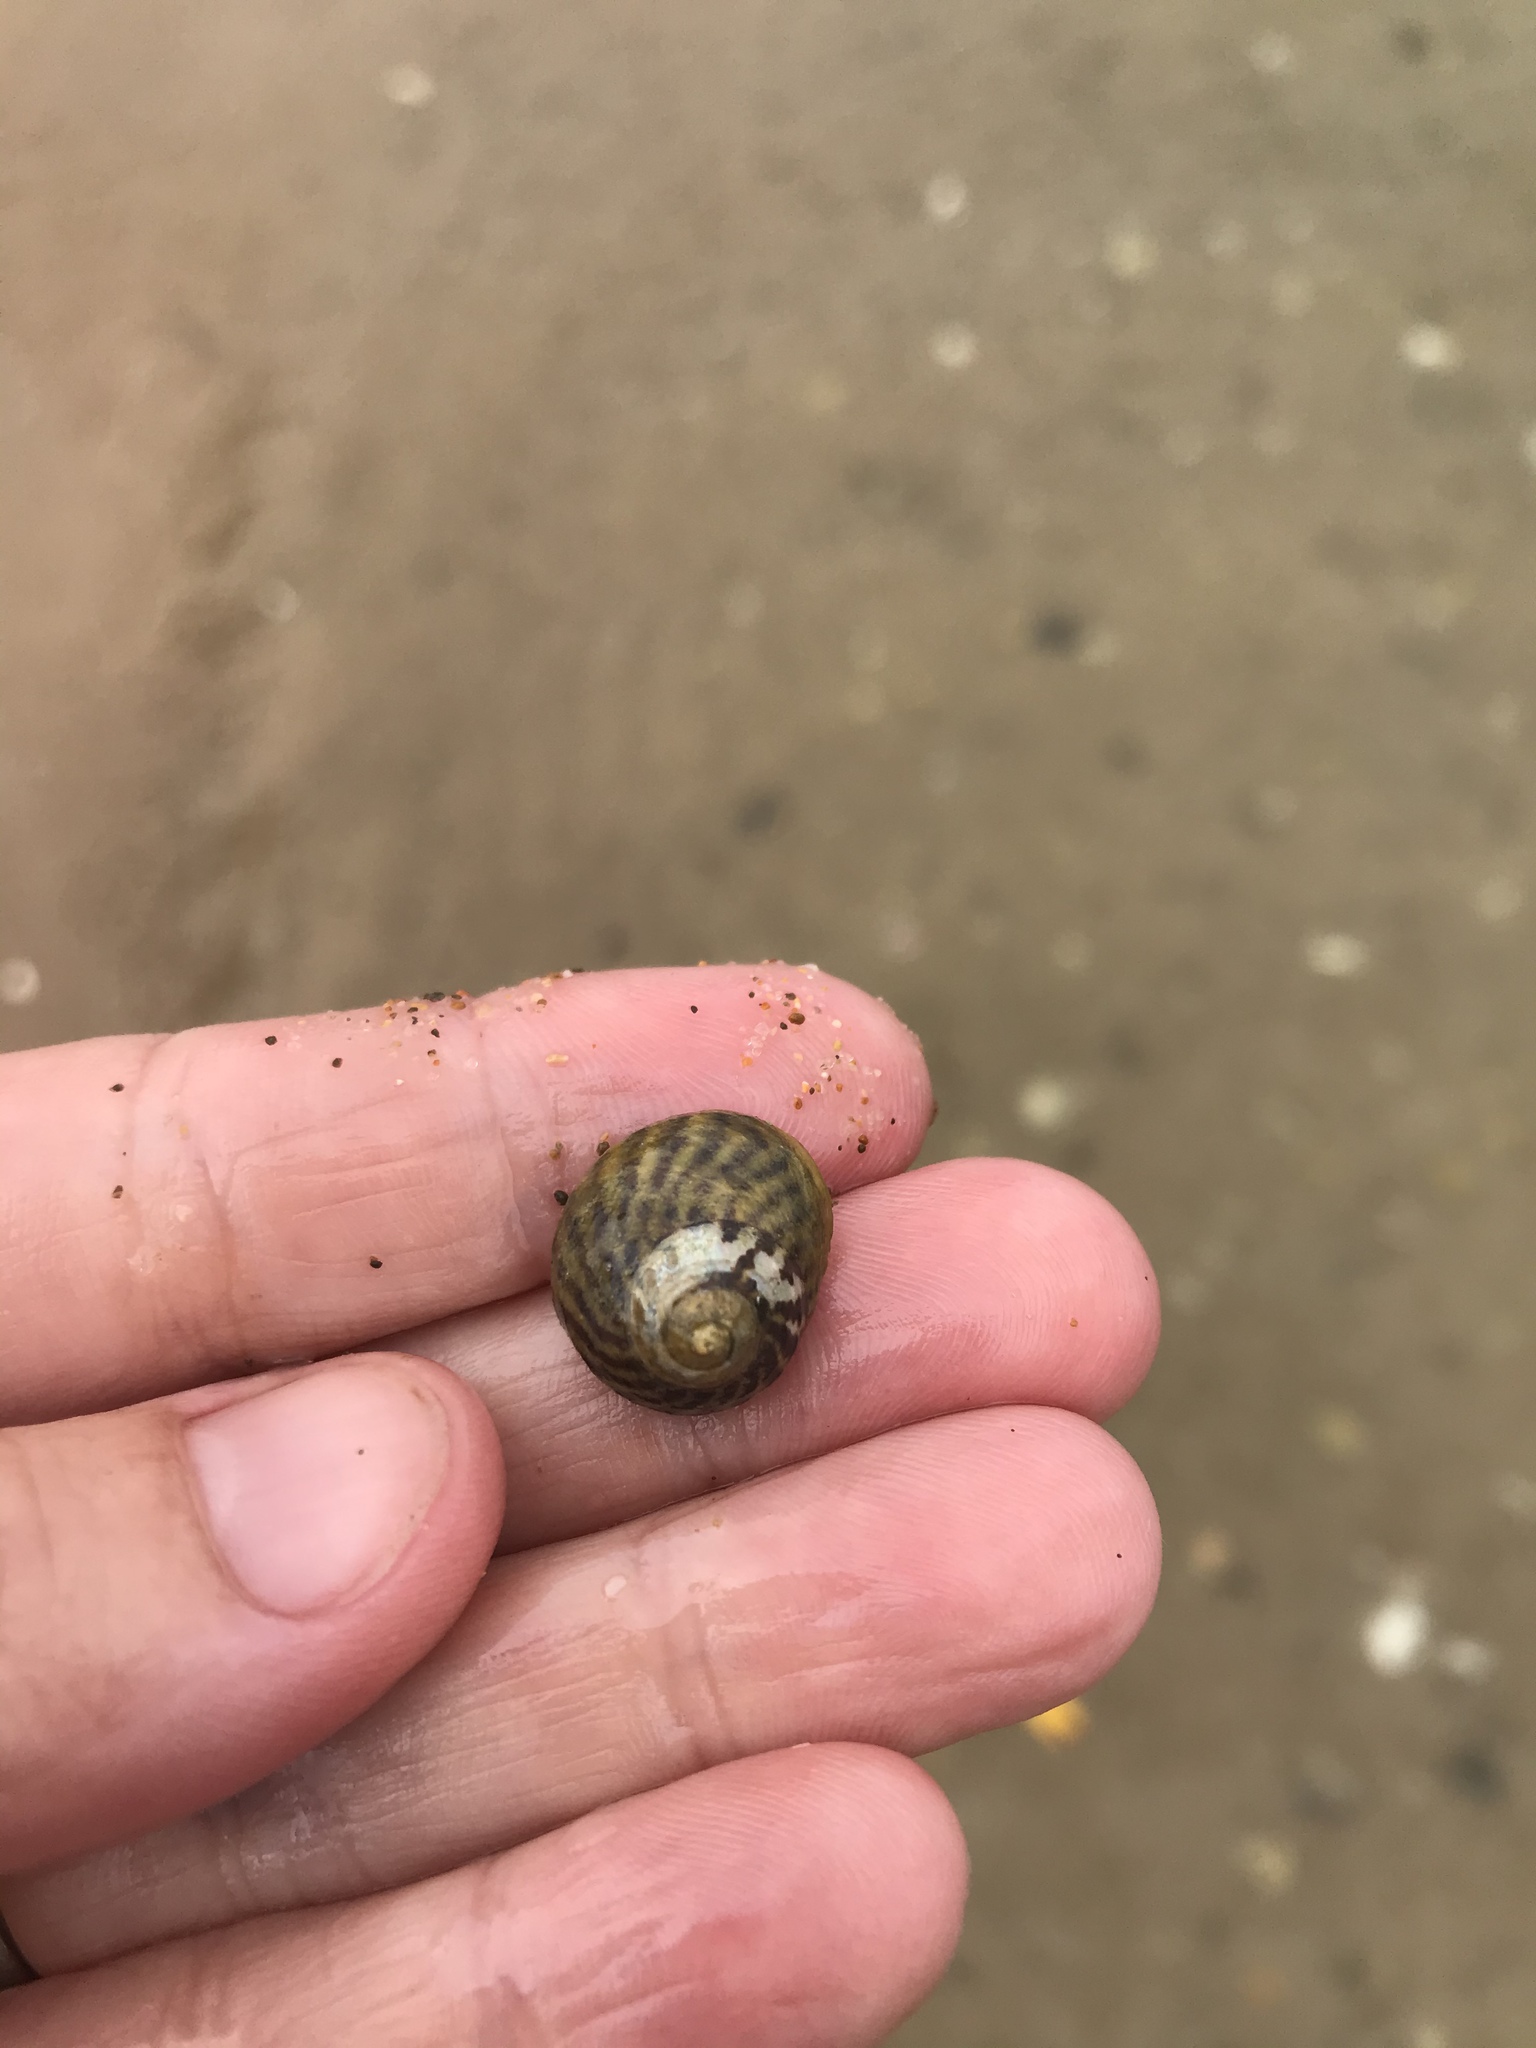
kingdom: Animalia
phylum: Mollusca
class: Gastropoda
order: Trochida
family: Trochidae
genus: Diloma
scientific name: Diloma subrostratum
